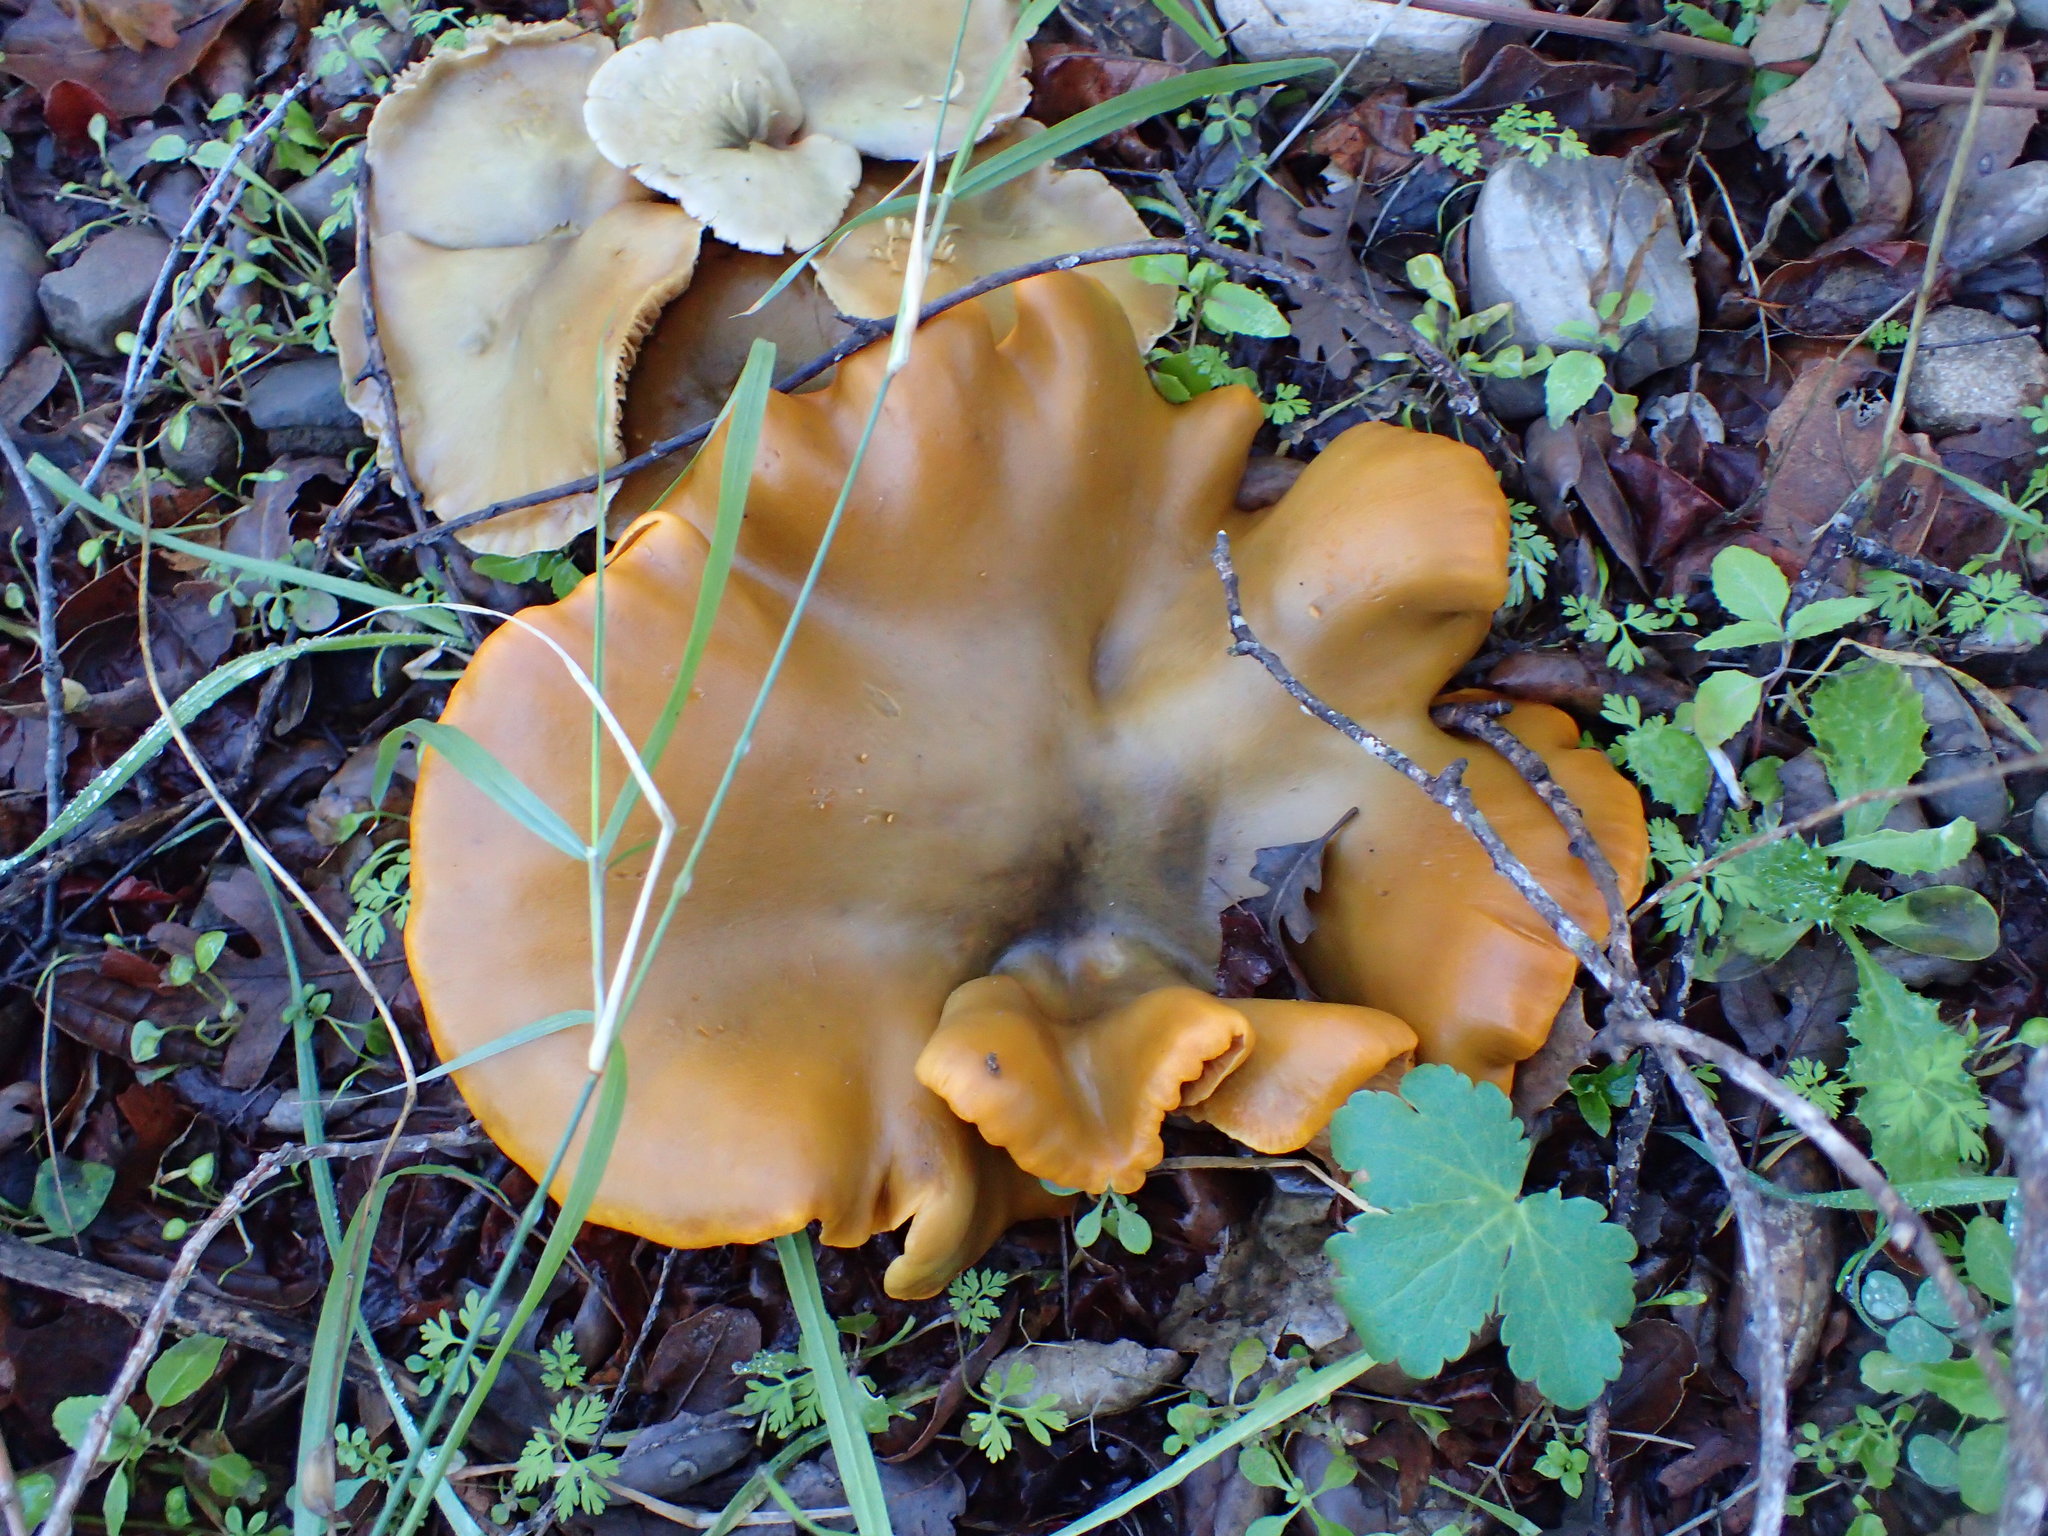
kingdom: Fungi
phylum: Basidiomycota
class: Agaricomycetes
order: Agaricales
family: Omphalotaceae
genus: Omphalotus
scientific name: Omphalotus olivascens
